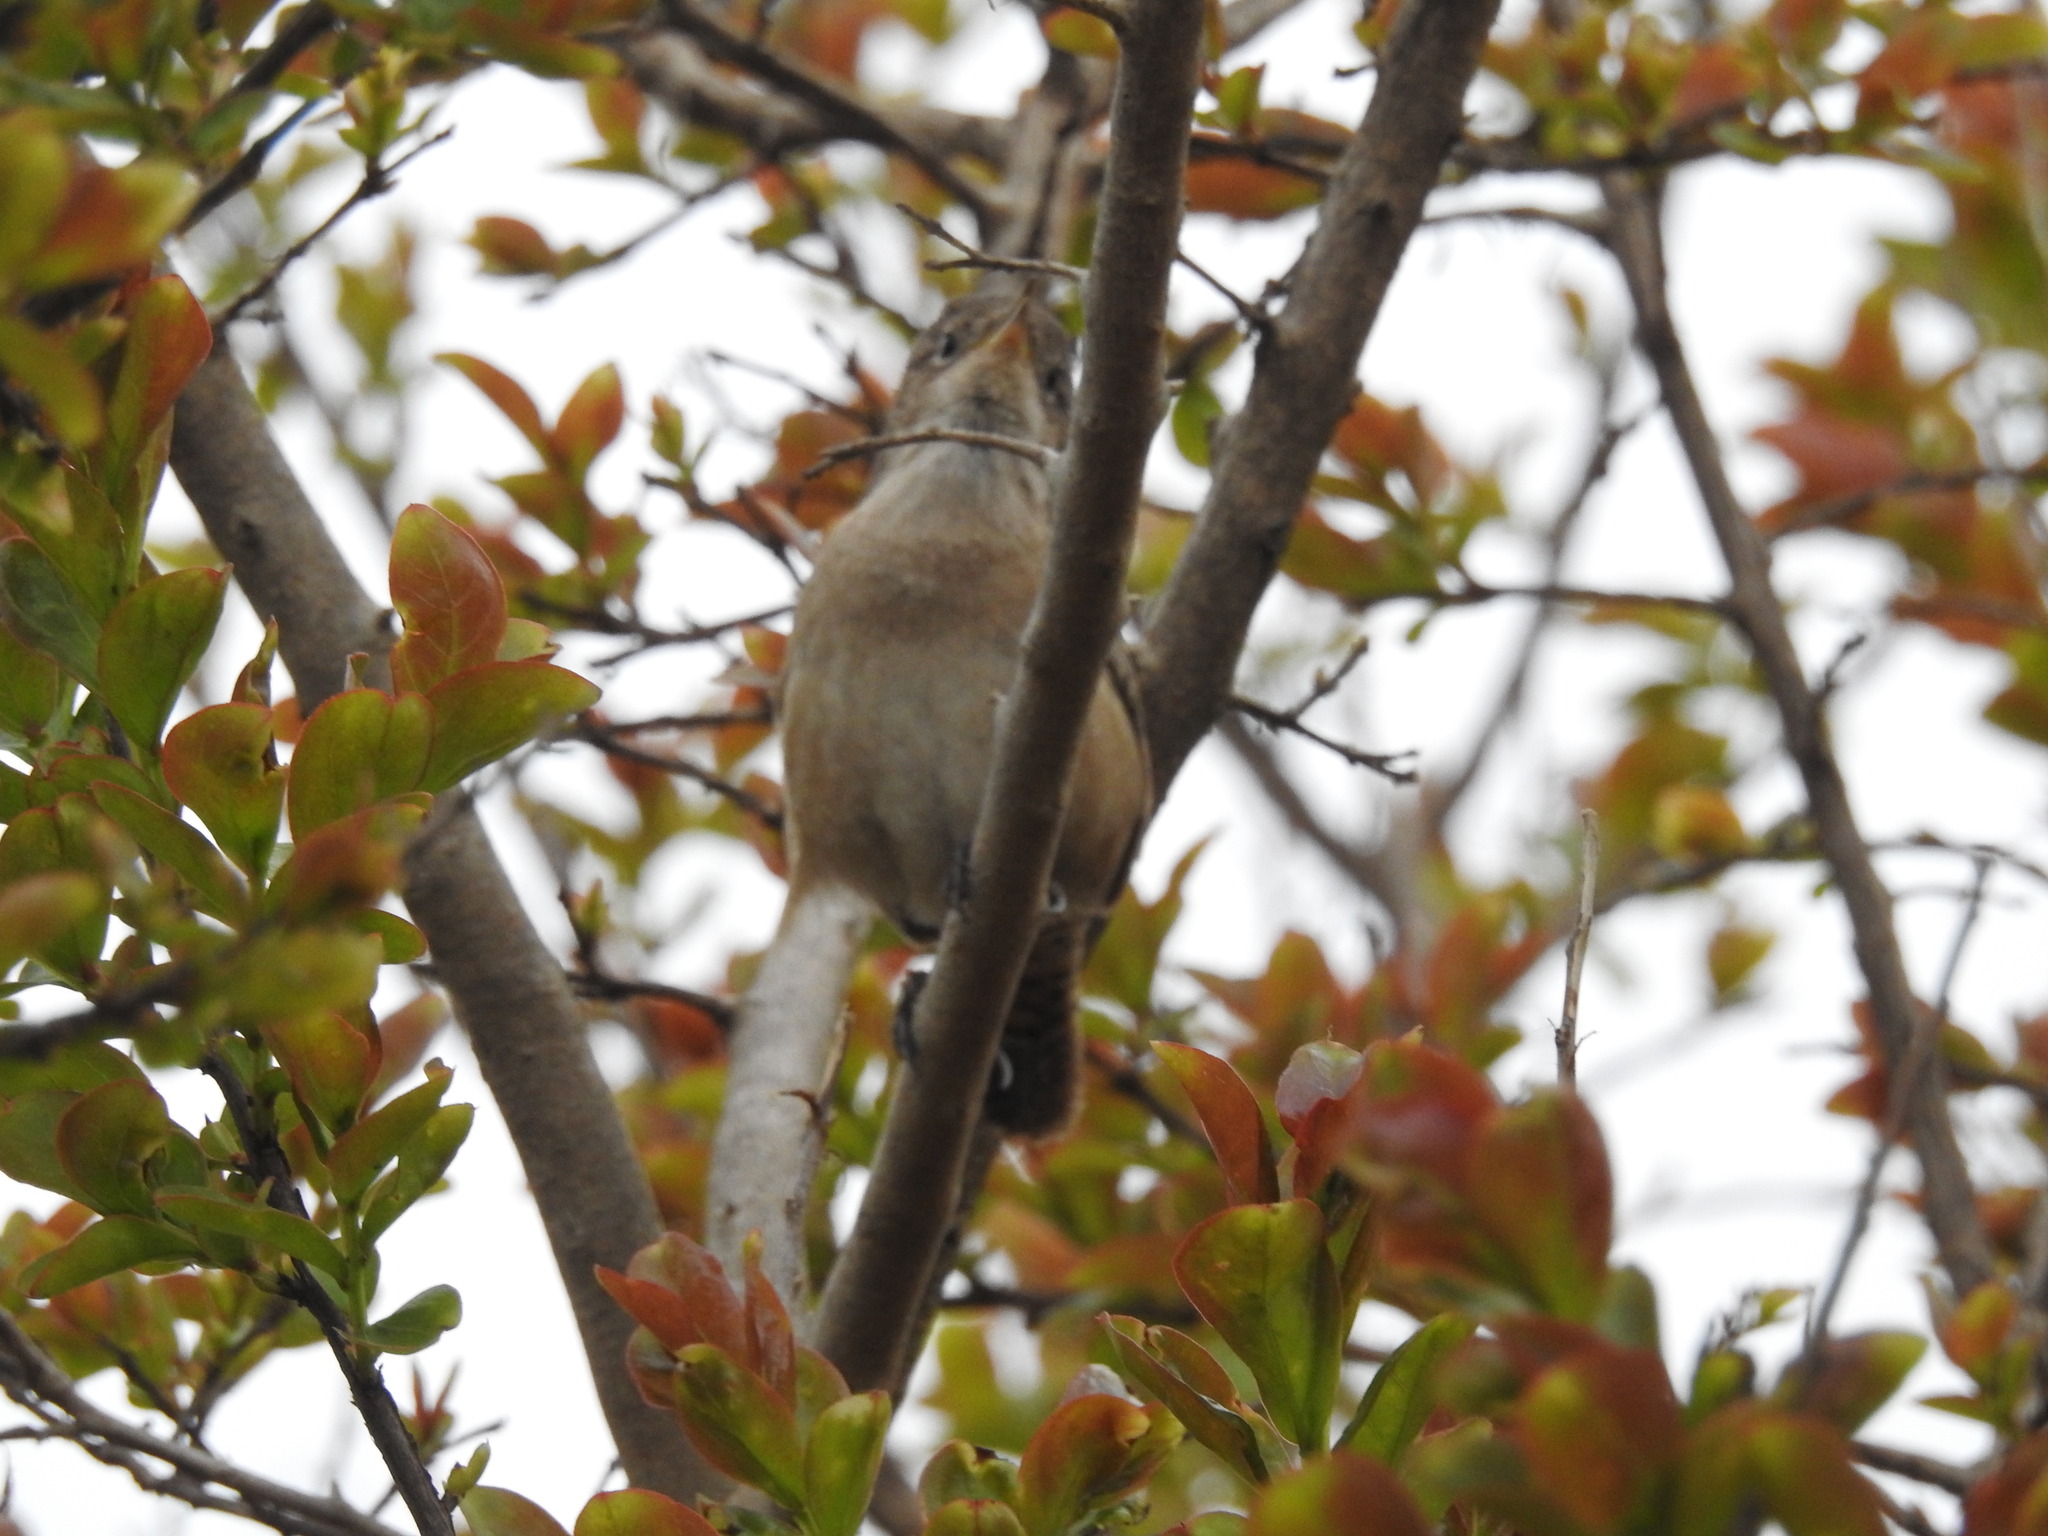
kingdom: Animalia
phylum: Chordata
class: Aves
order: Passeriformes
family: Troglodytidae
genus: Troglodytes
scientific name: Troglodytes aedon
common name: House wren
